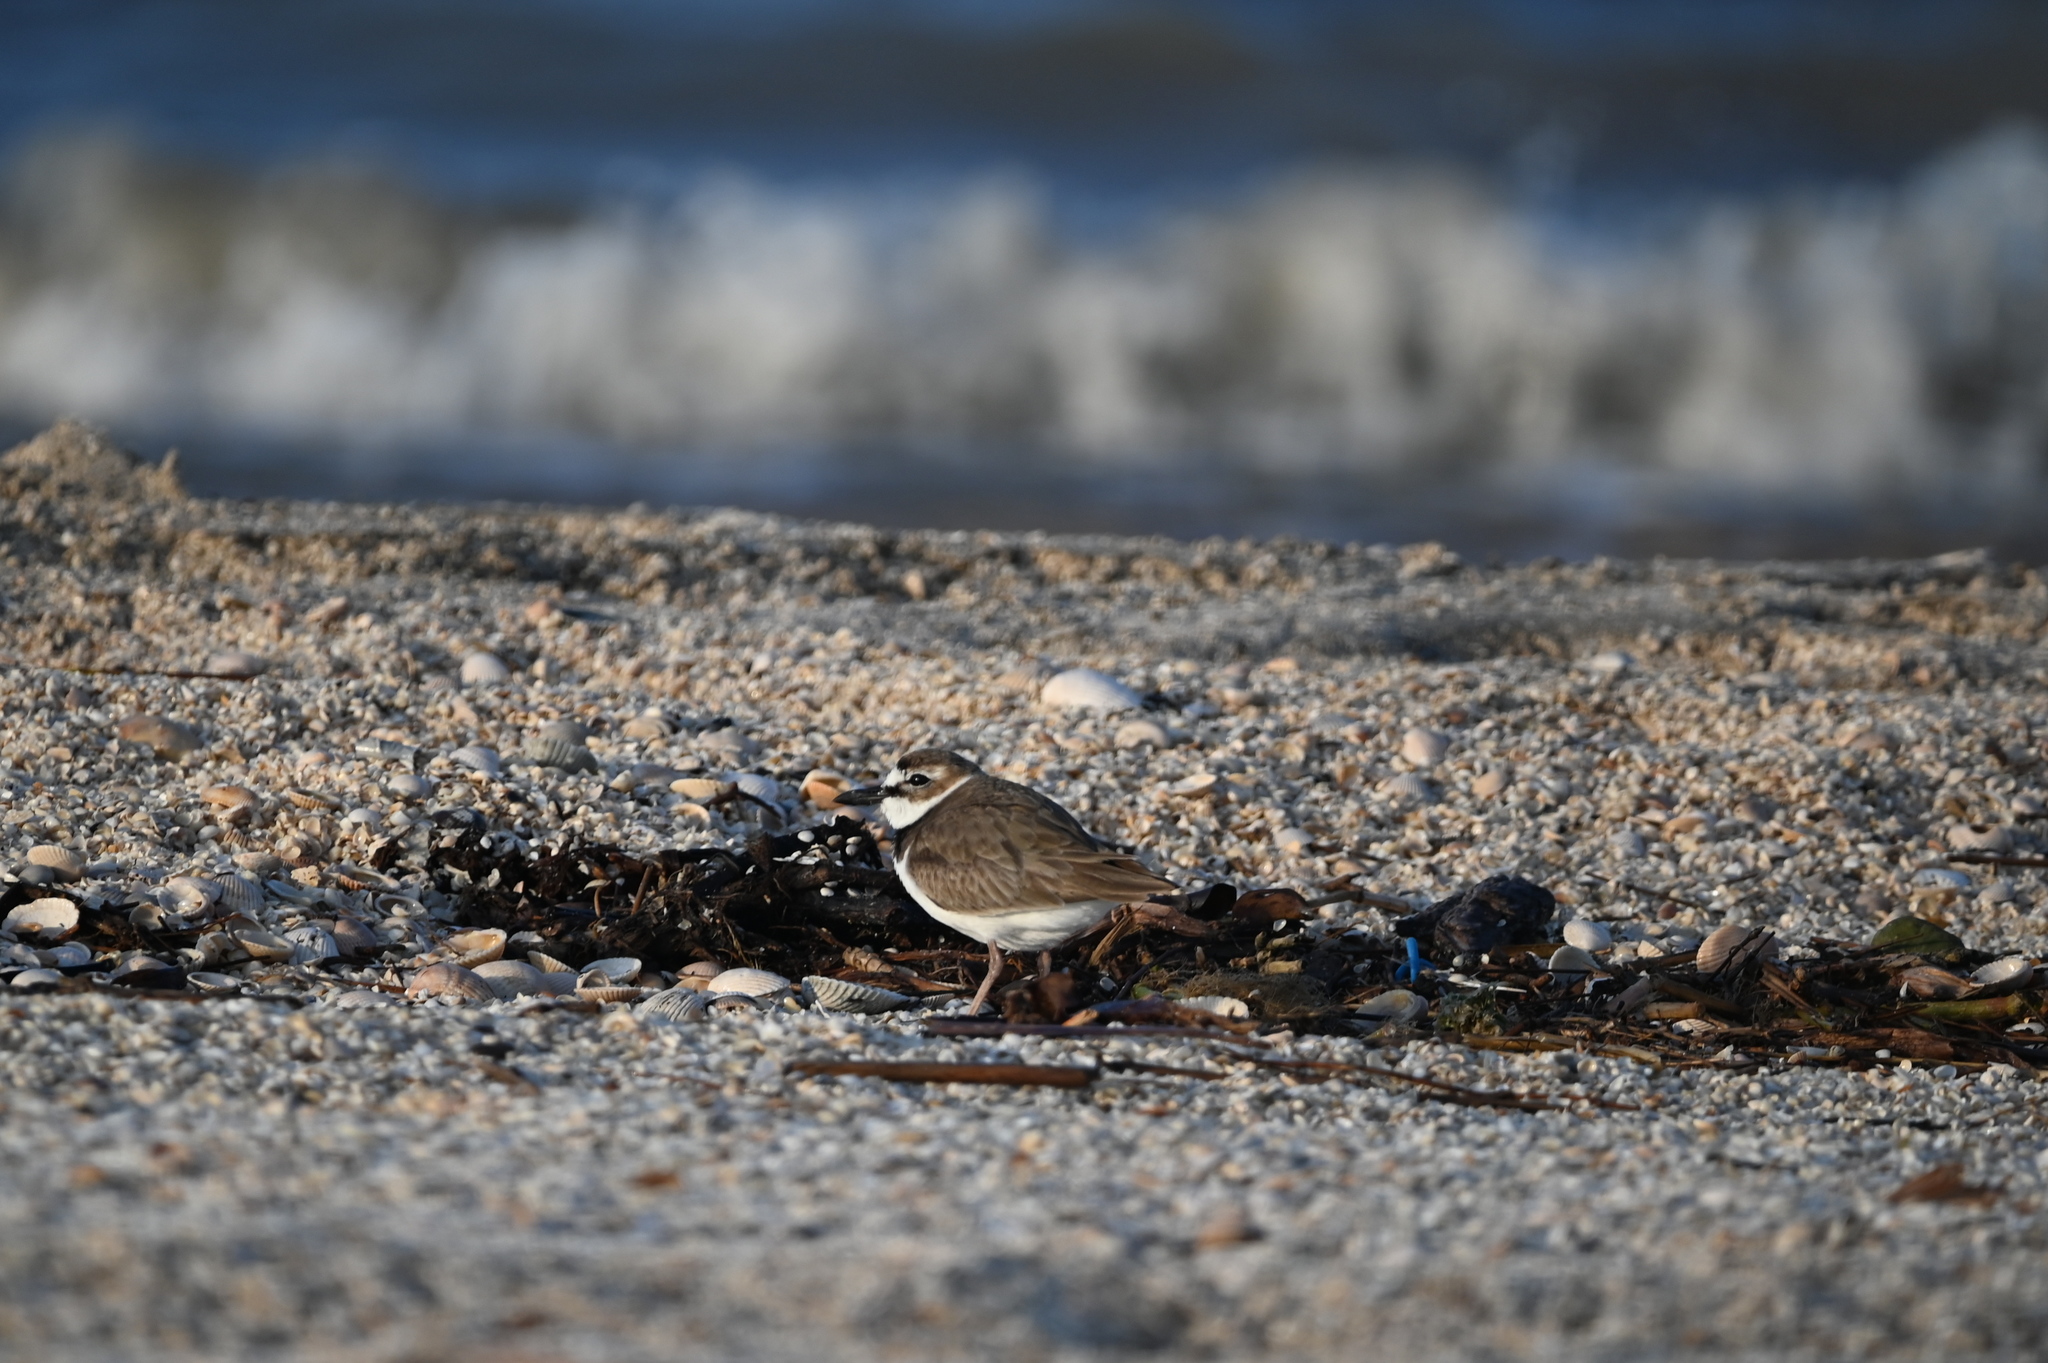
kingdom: Animalia
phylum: Chordata
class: Aves
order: Charadriiformes
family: Charadriidae
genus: Anarhynchus
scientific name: Anarhynchus
